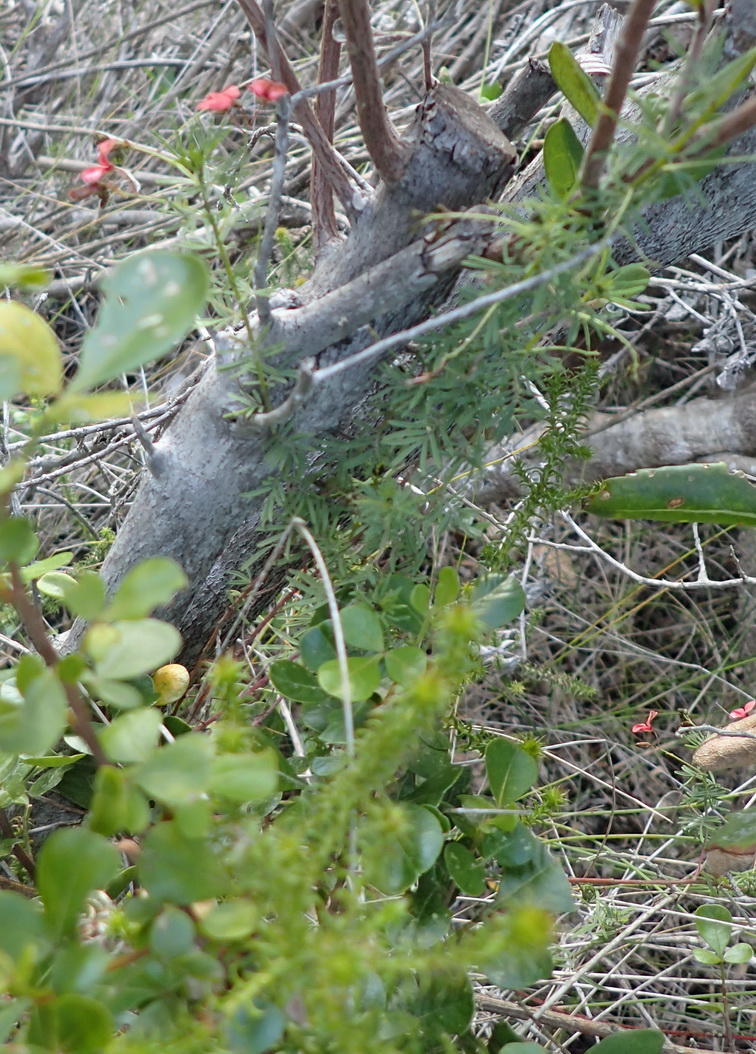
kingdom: Plantae
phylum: Tracheophyta
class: Magnoliopsida
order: Fabales
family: Fabaceae
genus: Indigofera
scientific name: Indigofera verrucosa
